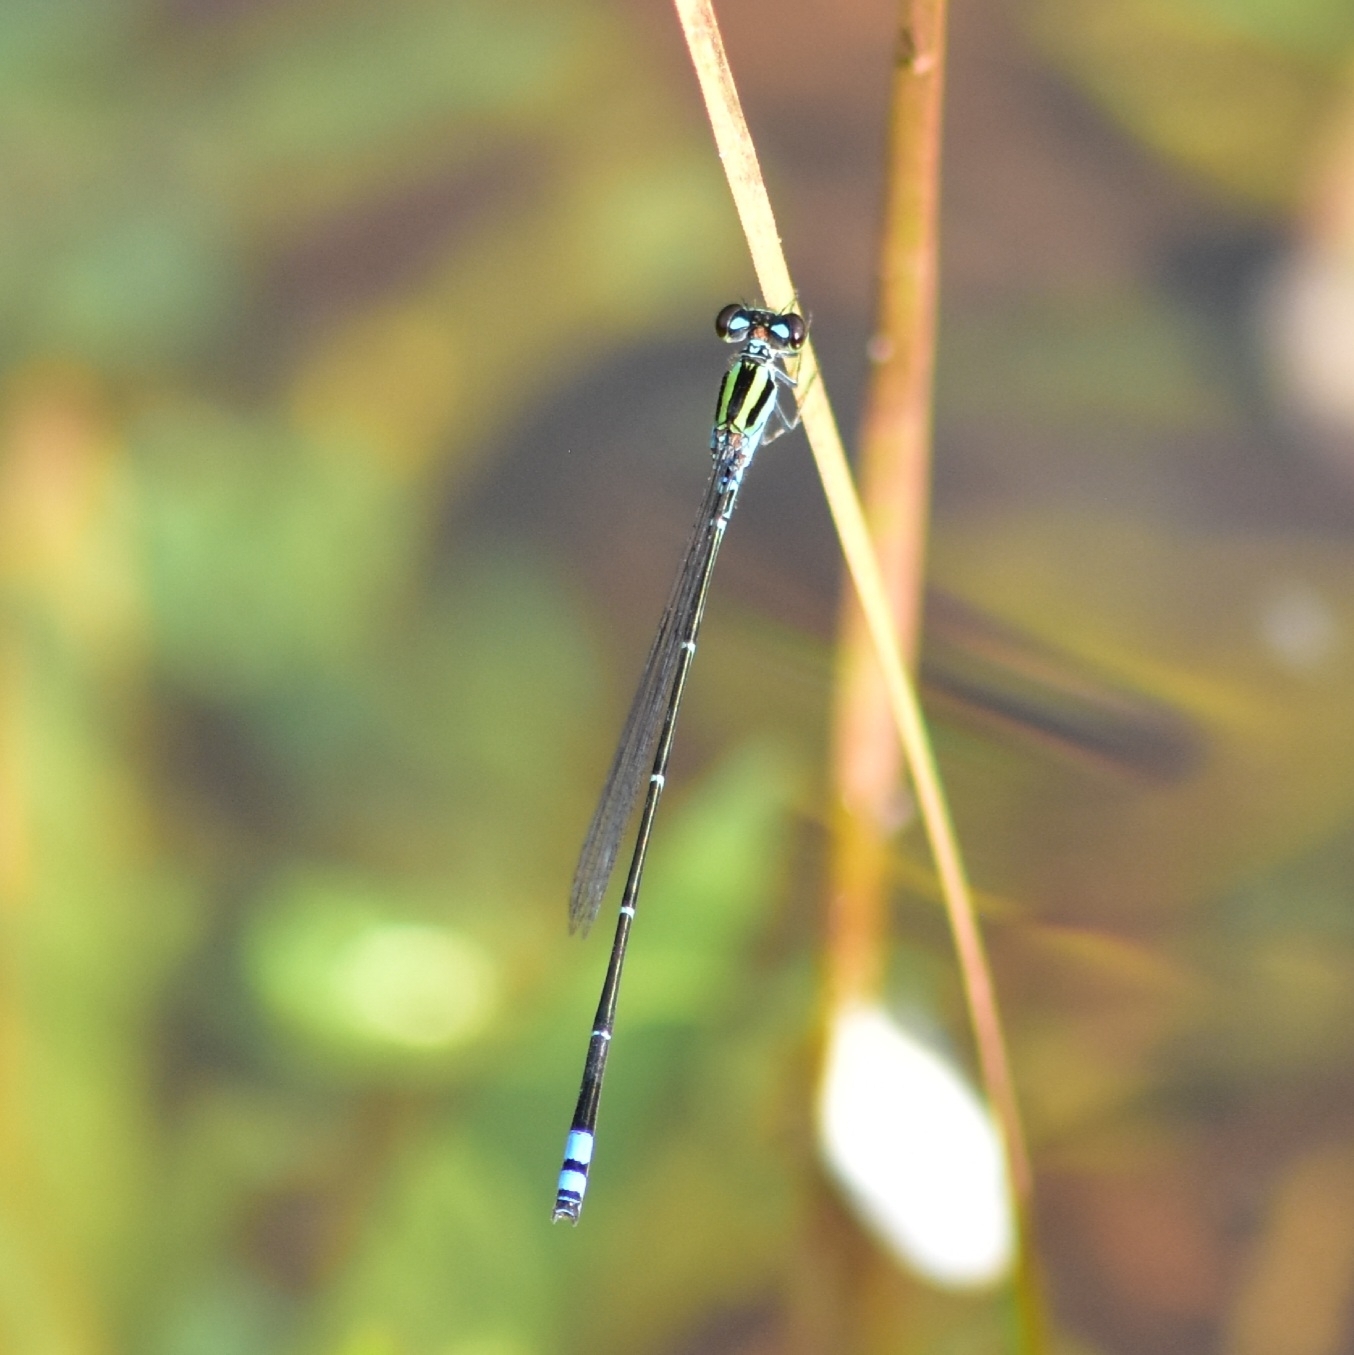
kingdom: Animalia
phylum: Arthropoda
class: Insecta
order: Odonata
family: Coenagrionidae
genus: Pseudagrion
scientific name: Pseudagrion indicum
